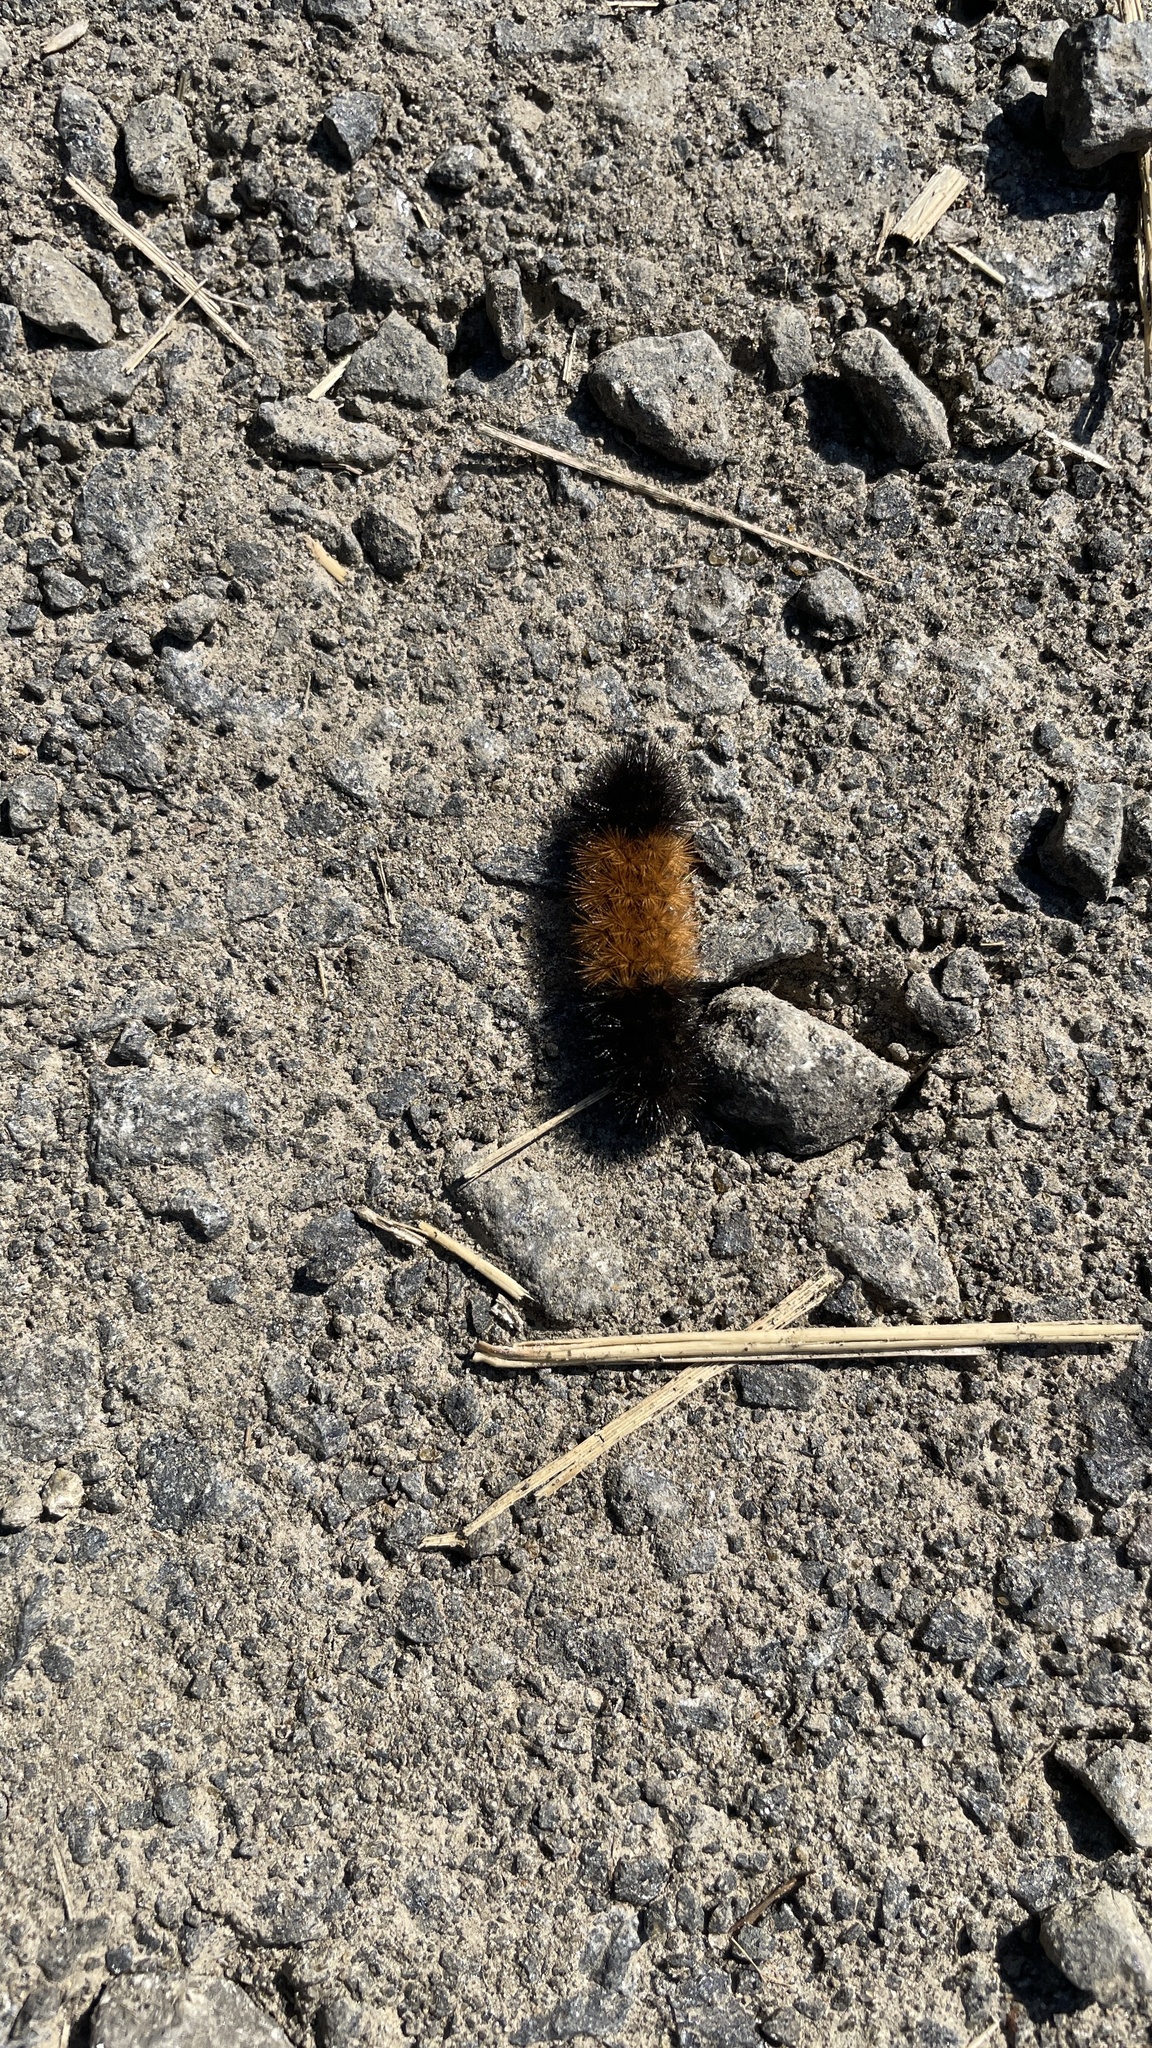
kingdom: Animalia
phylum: Arthropoda
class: Insecta
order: Lepidoptera
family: Erebidae
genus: Pyrrharctia
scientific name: Pyrrharctia isabella
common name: Isabella tiger moth
